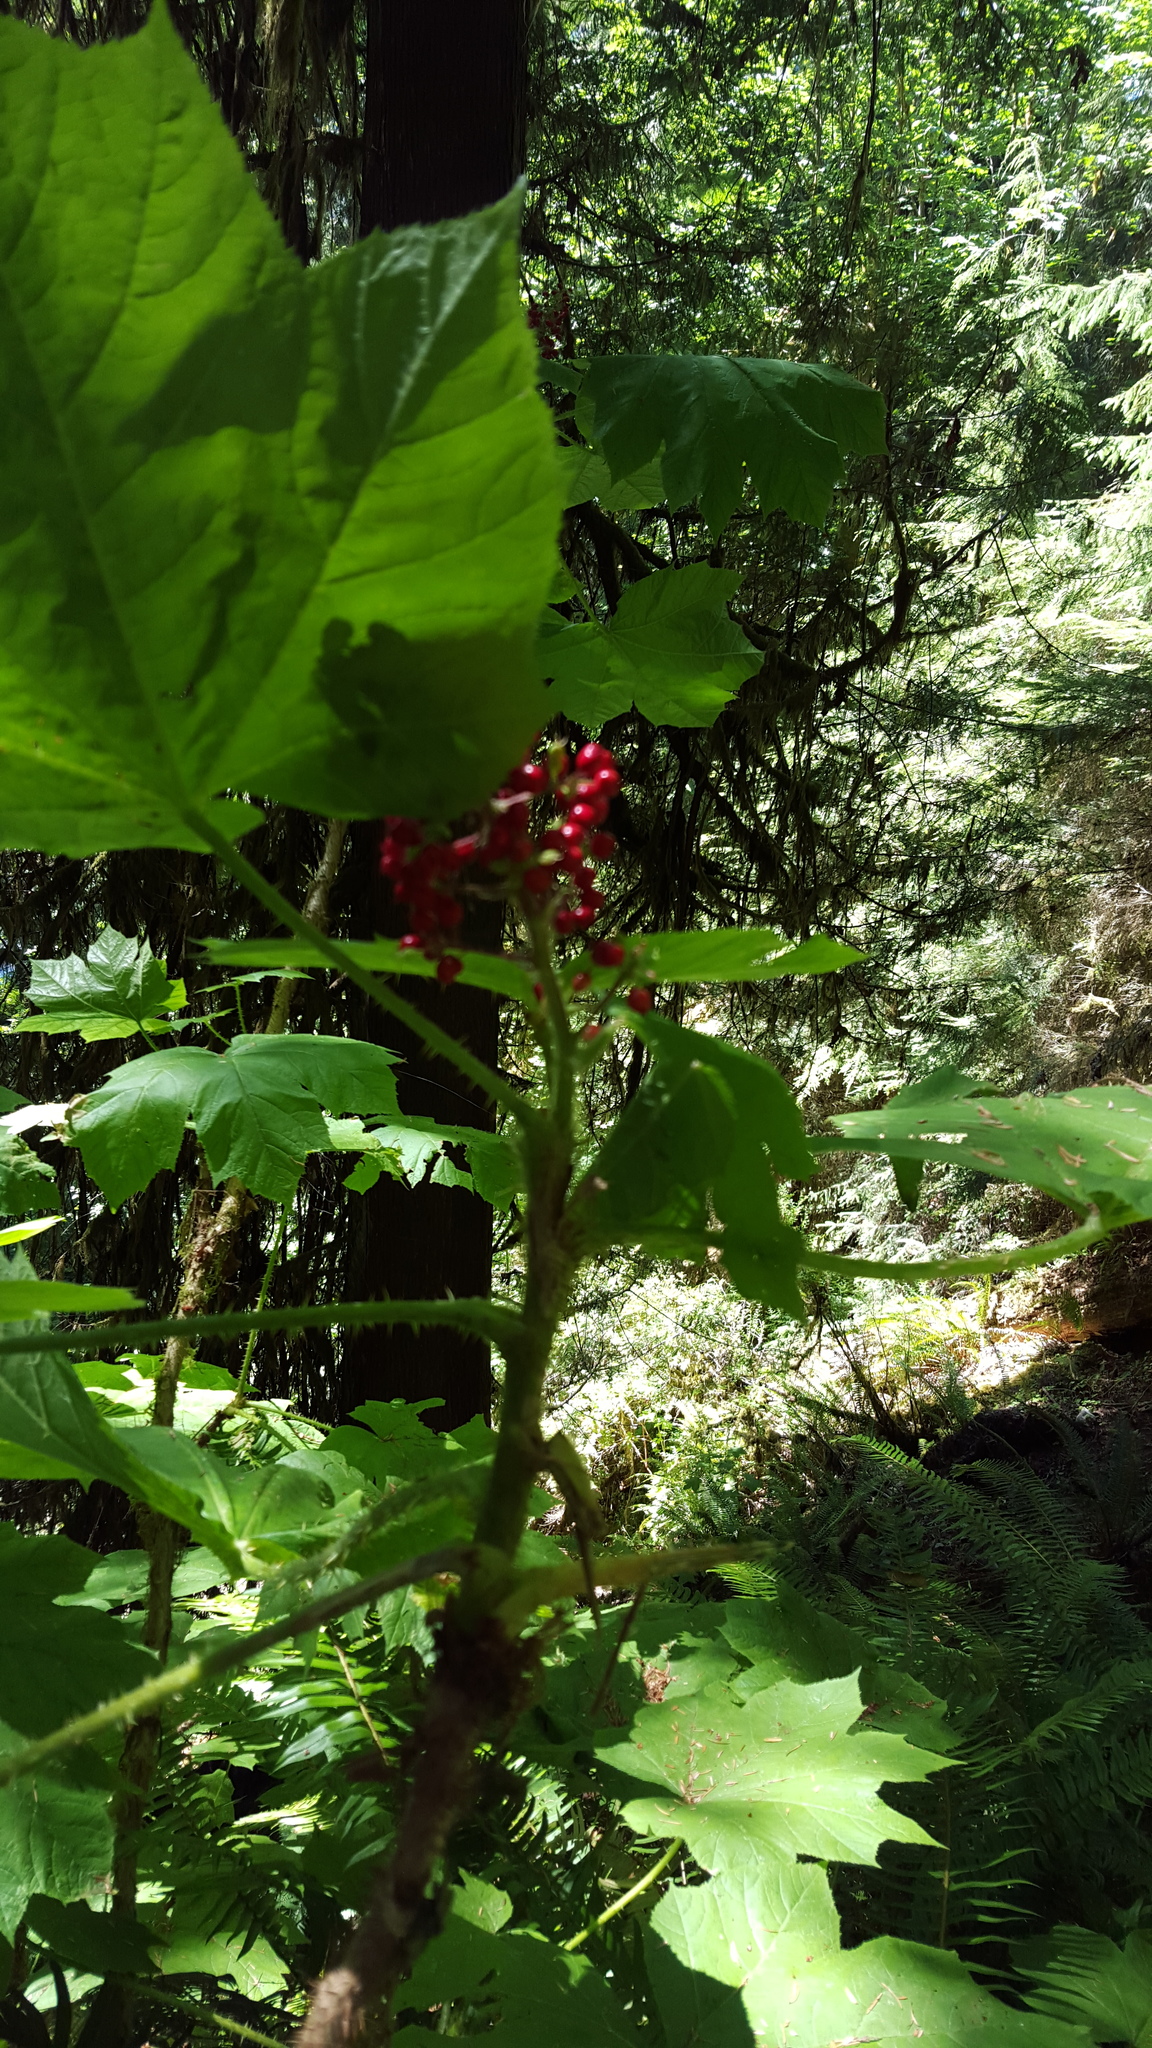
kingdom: Plantae
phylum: Tracheophyta
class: Magnoliopsida
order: Apiales
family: Araliaceae
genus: Oplopanax
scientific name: Oplopanax horridus
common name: Devil's walking-stick
